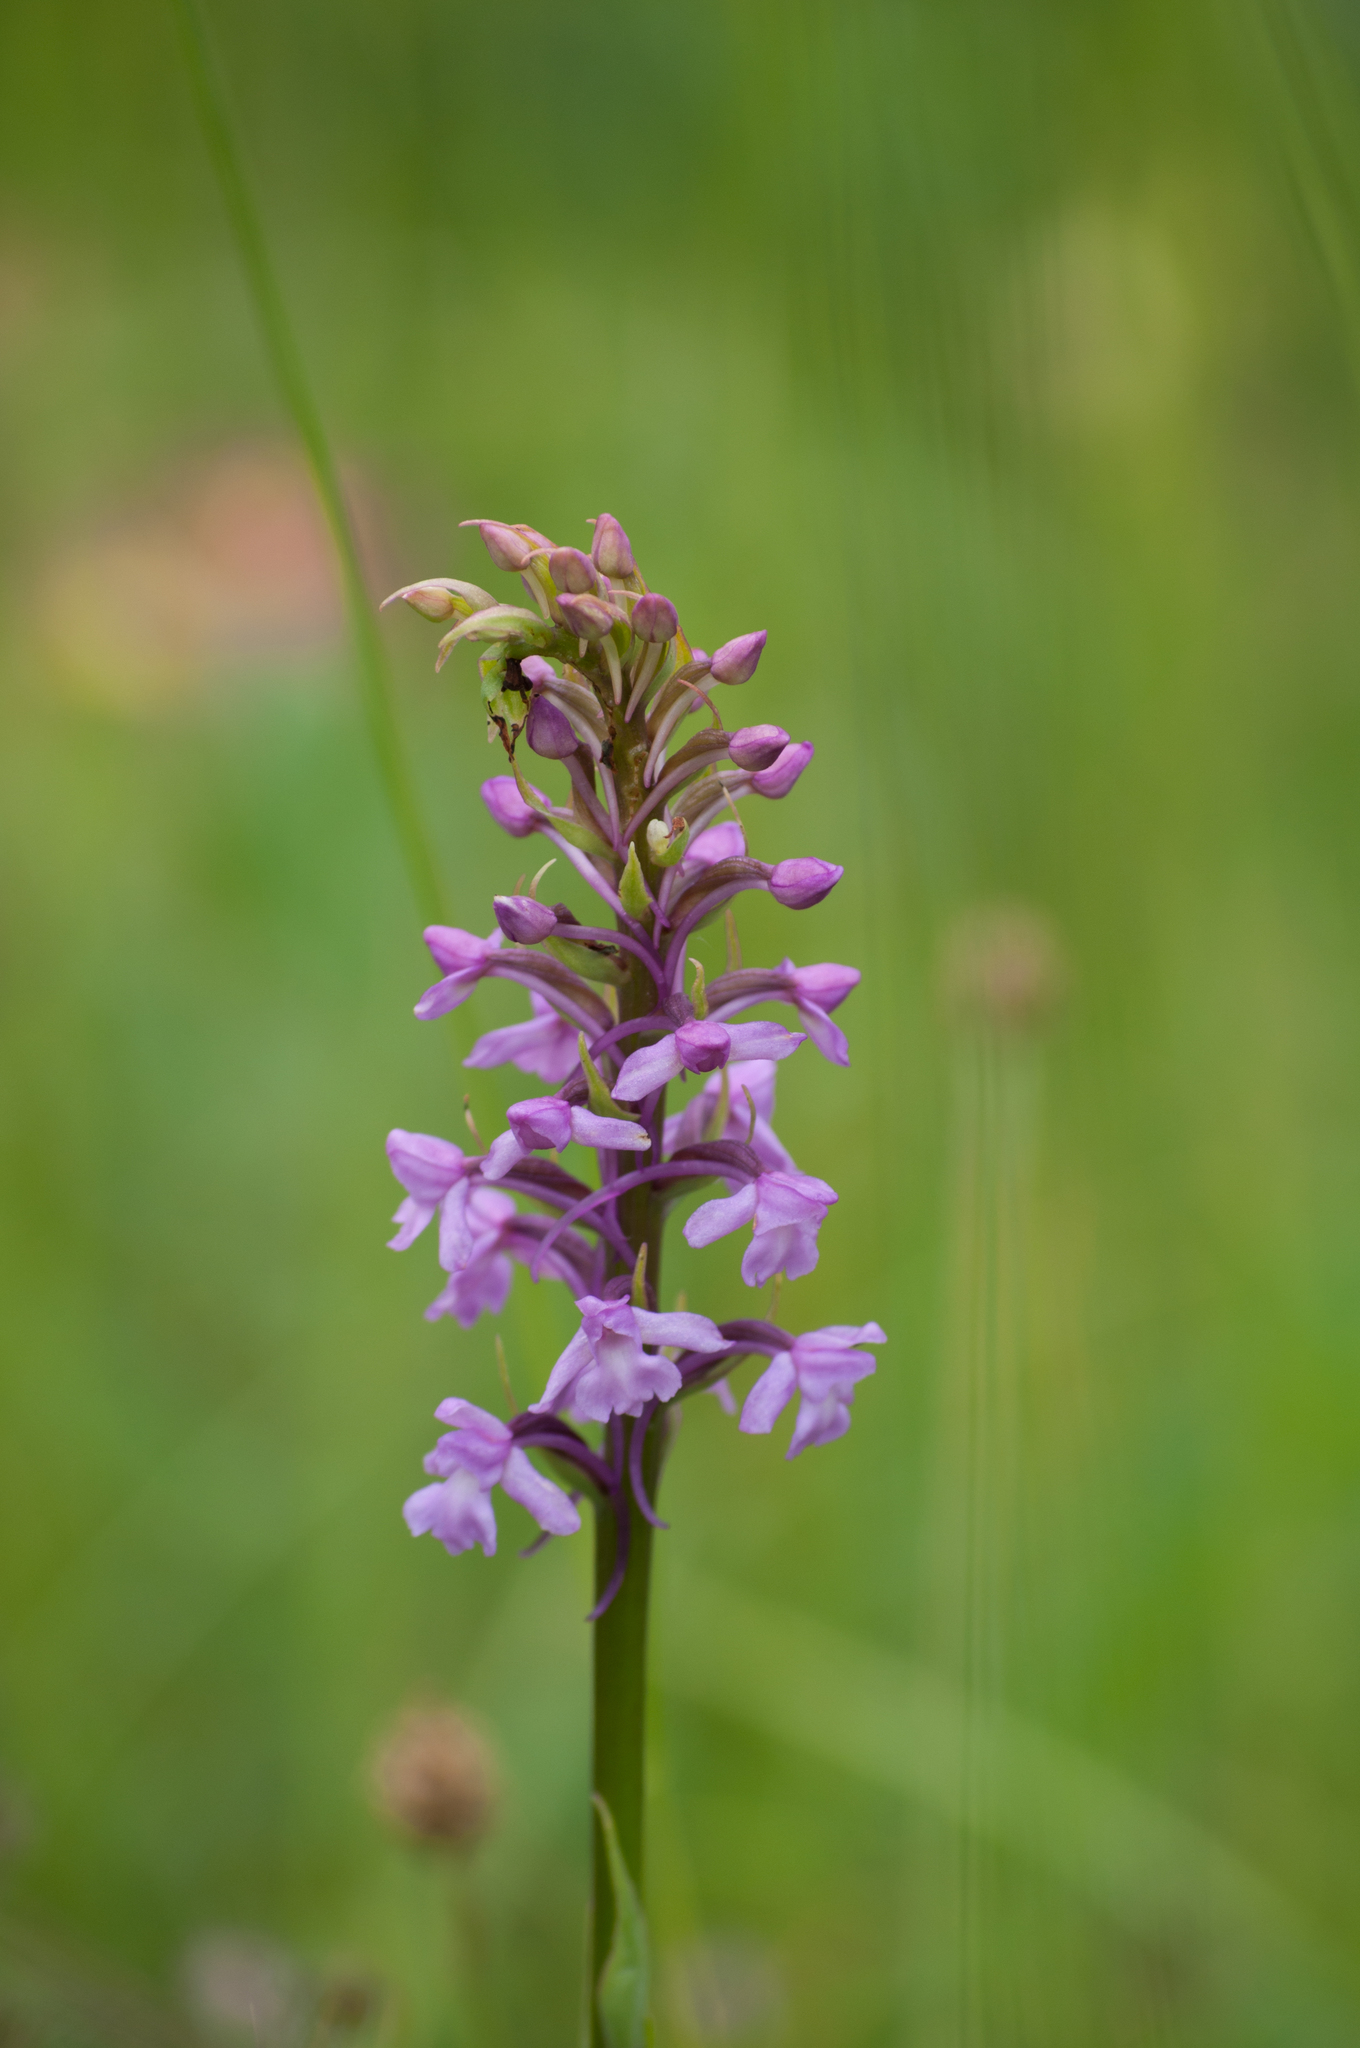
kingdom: Plantae
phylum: Tracheophyta
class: Liliopsida
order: Asparagales
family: Orchidaceae
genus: Gymnadenia
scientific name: Gymnadenia conopsea
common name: Fragrant orchid
